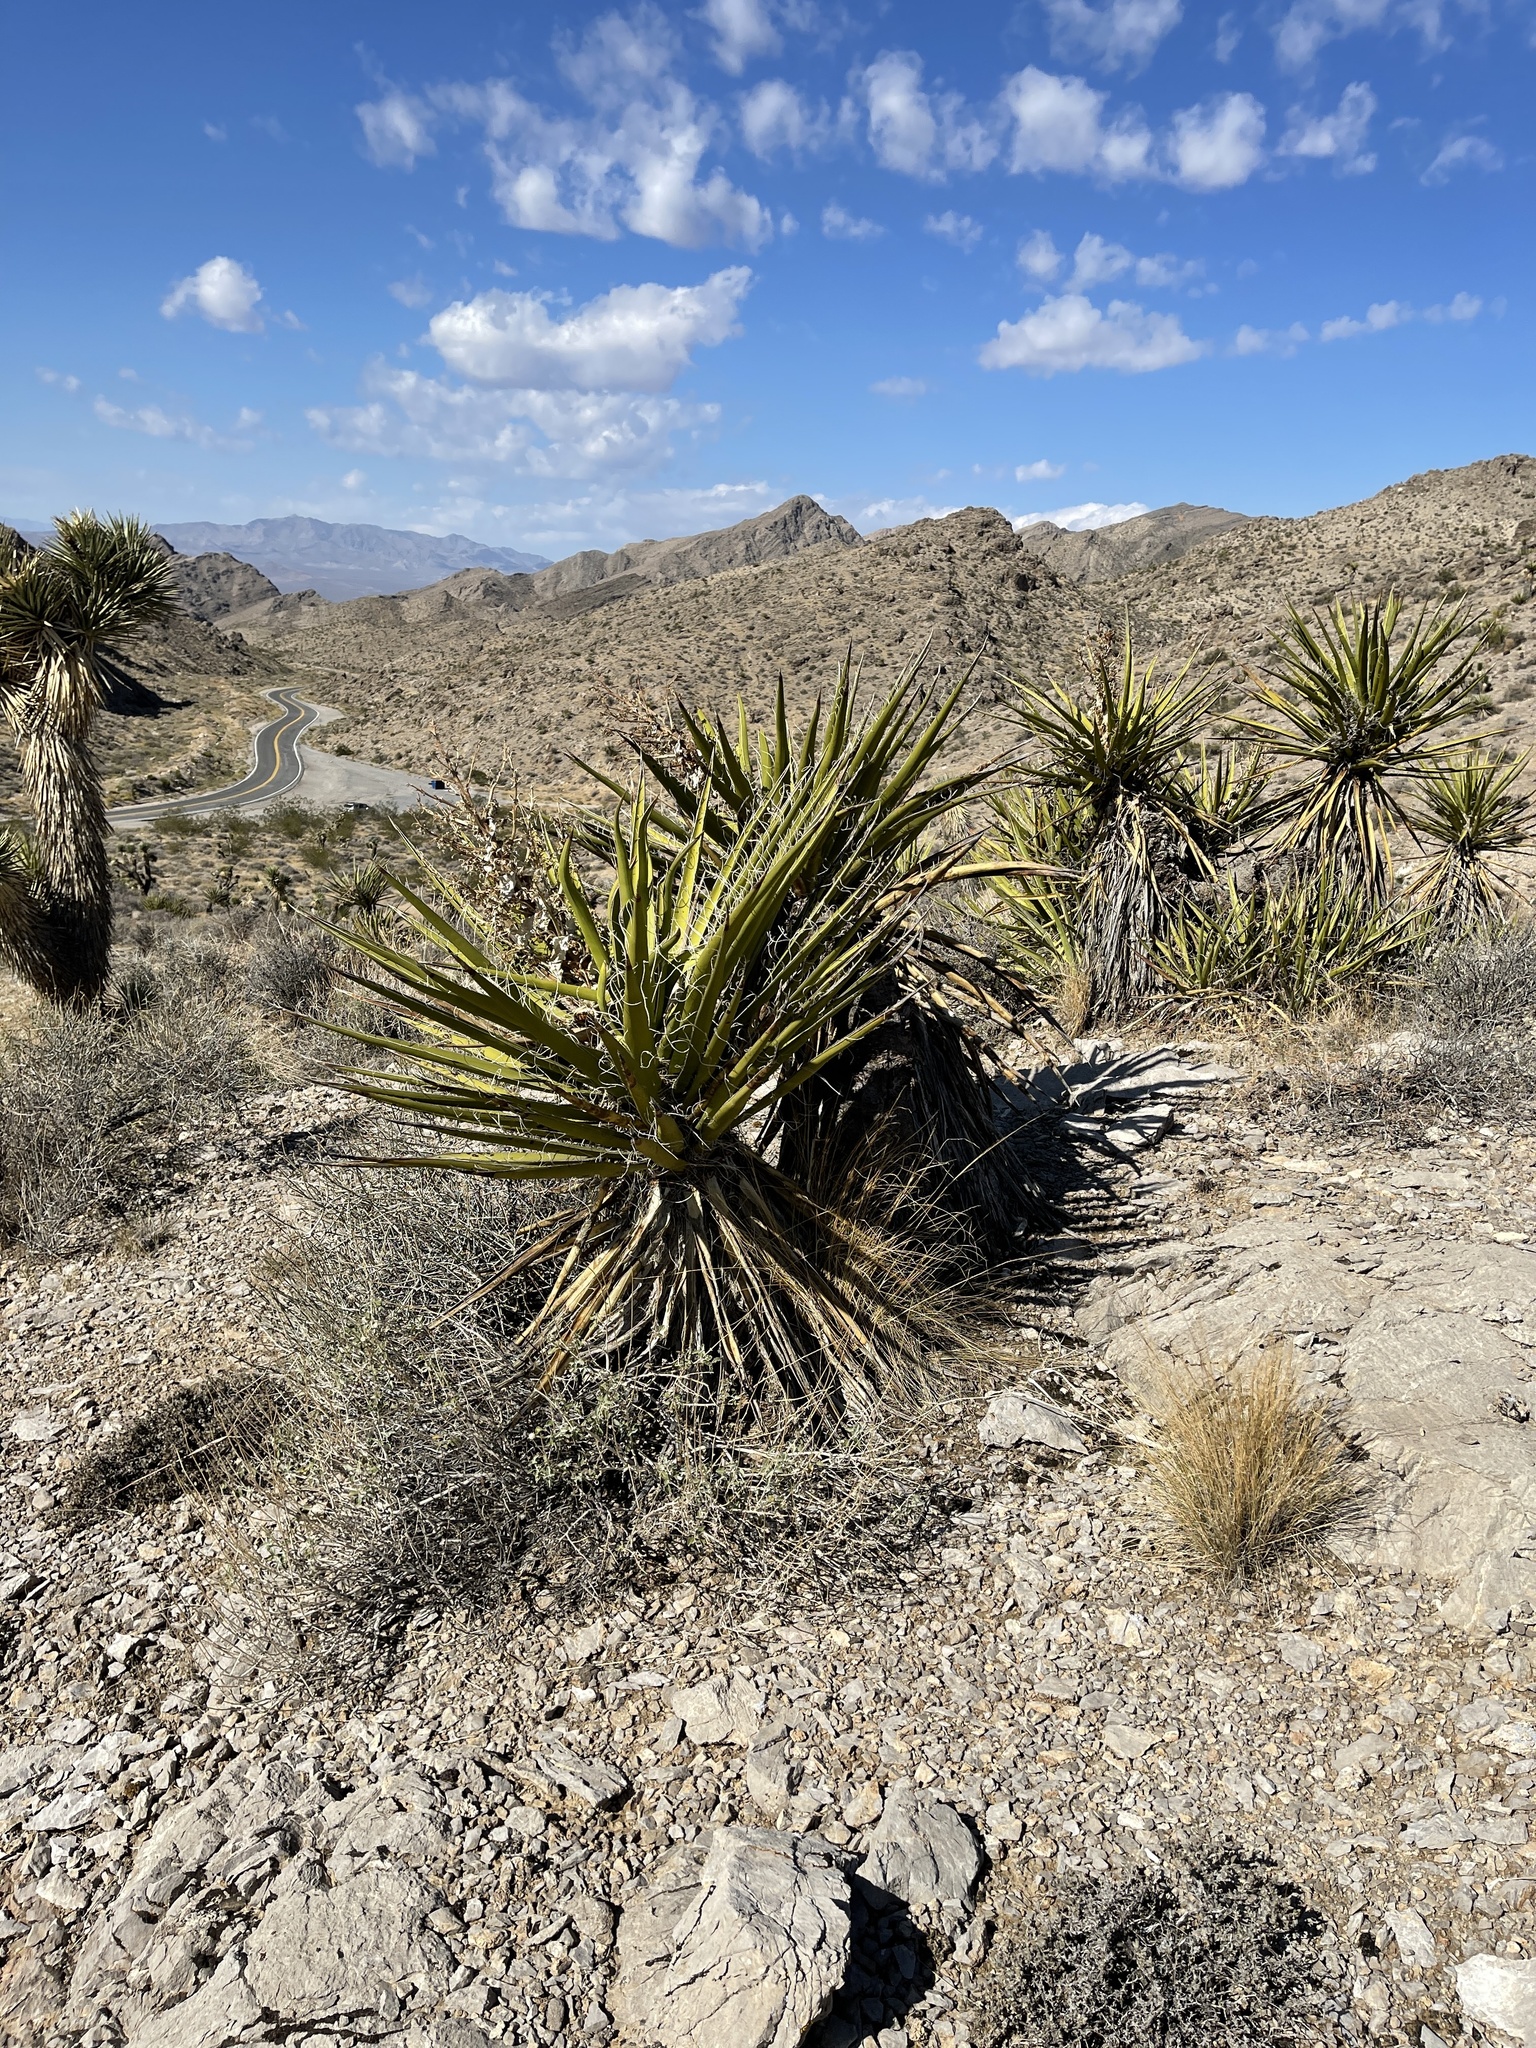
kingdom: Plantae
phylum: Tracheophyta
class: Liliopsida
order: Asparagales
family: Asparagaceae
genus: Yucca
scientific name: Yucca schidigera
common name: Mojave yucca
